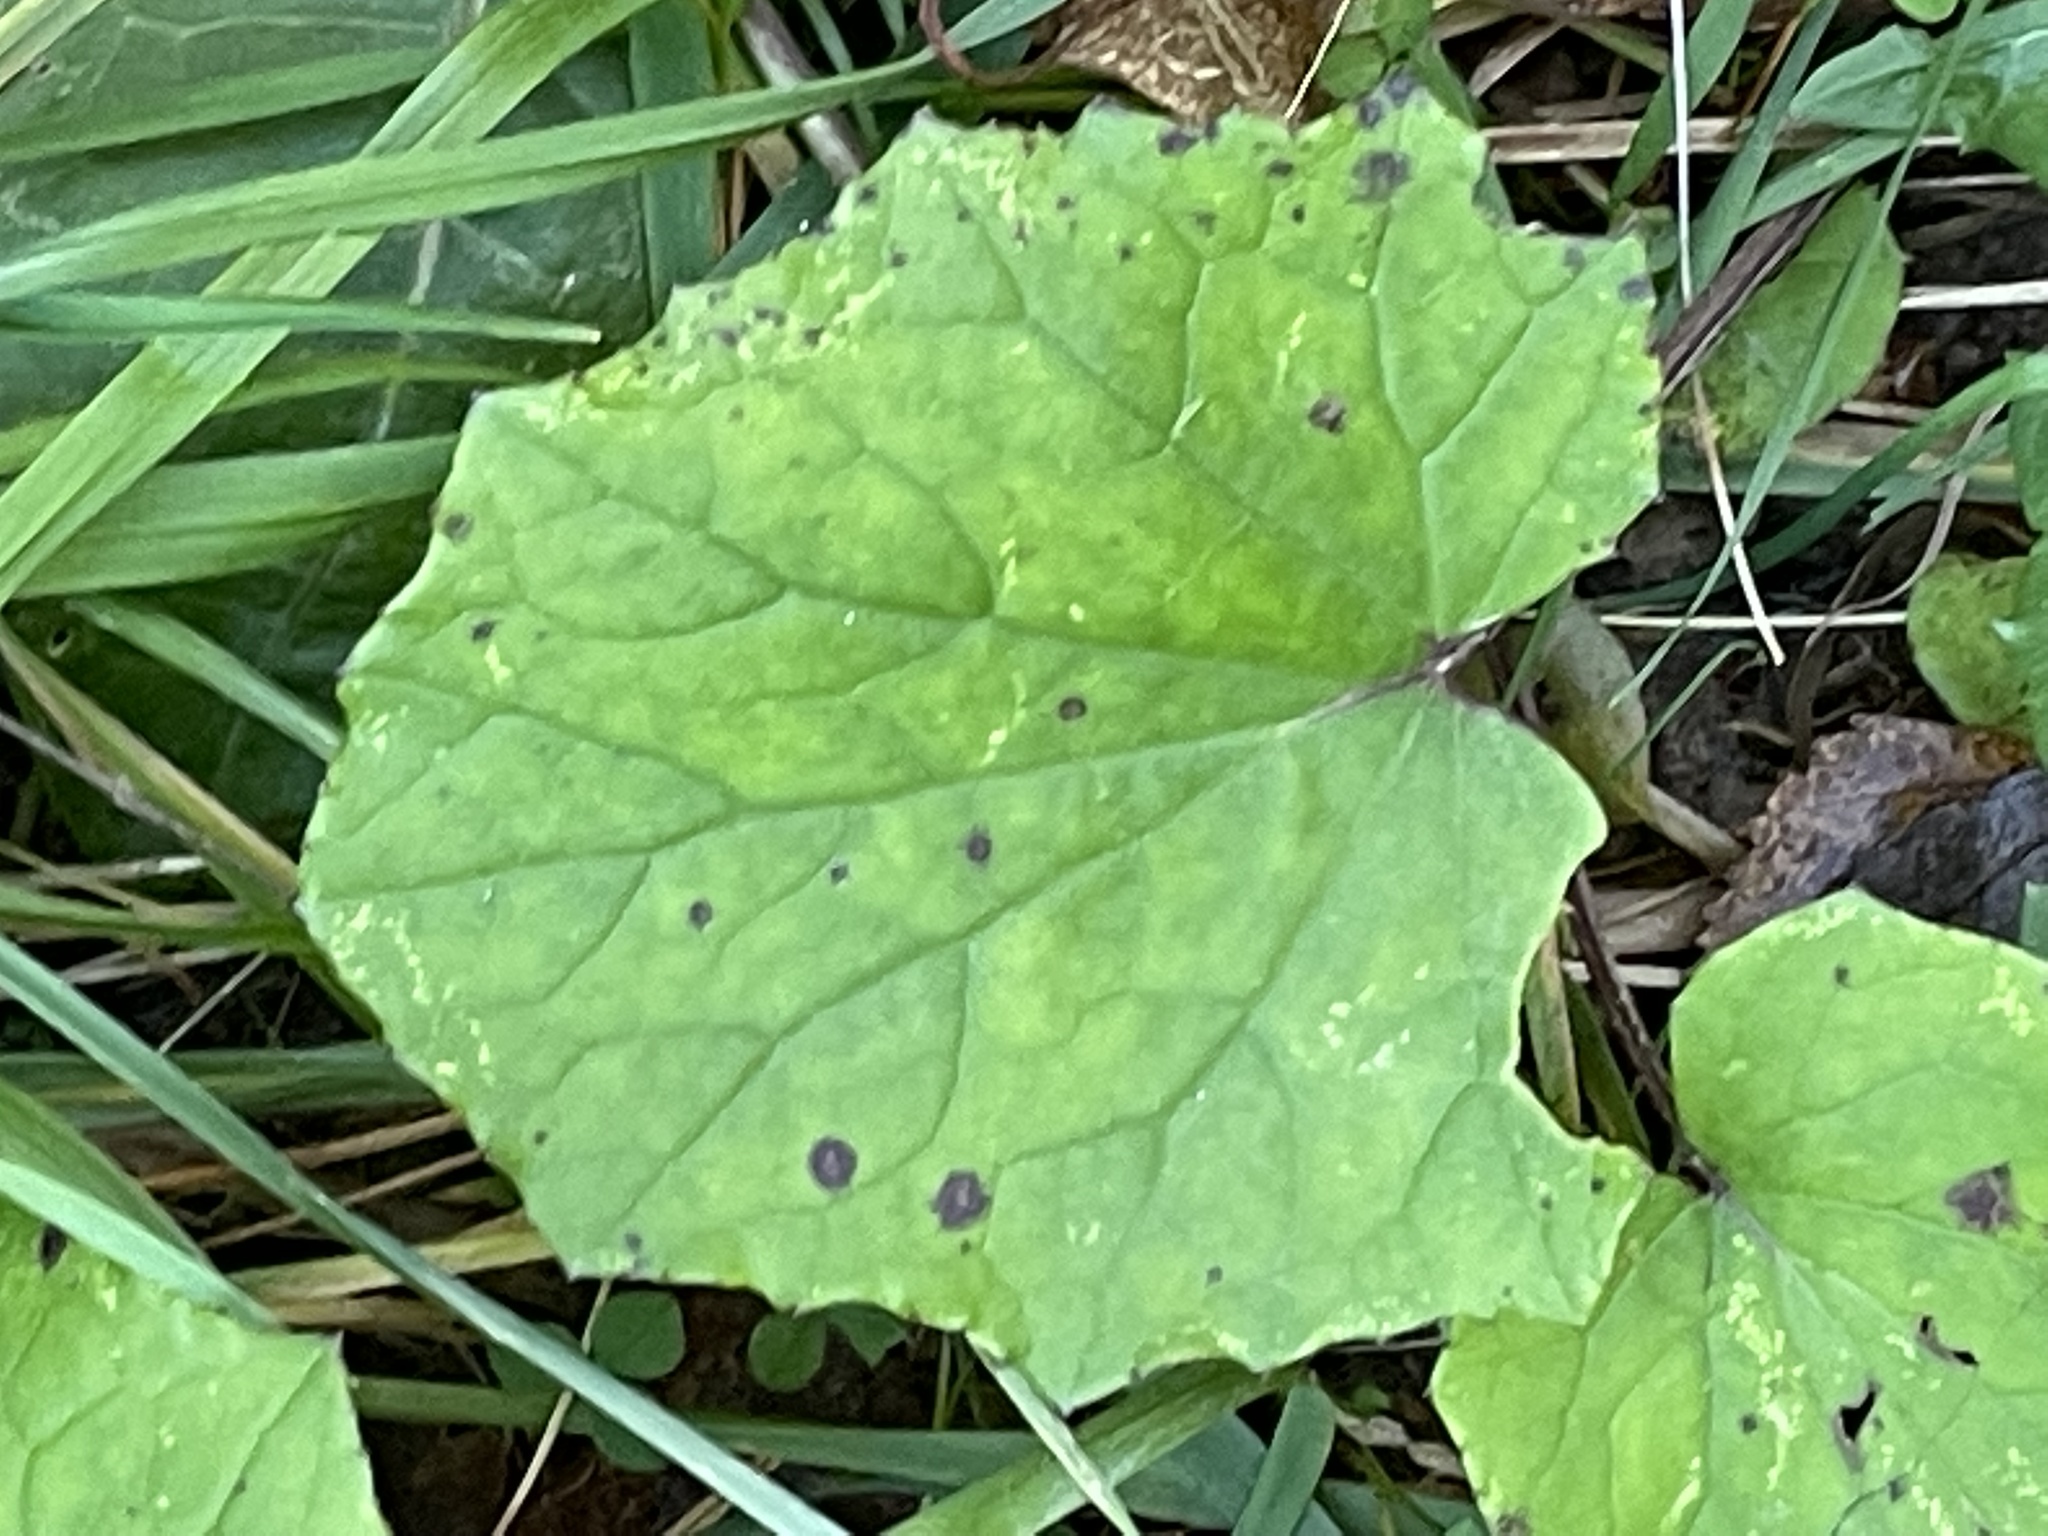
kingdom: Plantae
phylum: Tracheophyta
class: Magnoliopsida
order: Asterales
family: Asteraceae
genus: Tussilago
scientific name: Tussilago farfara
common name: Coltsfoot
